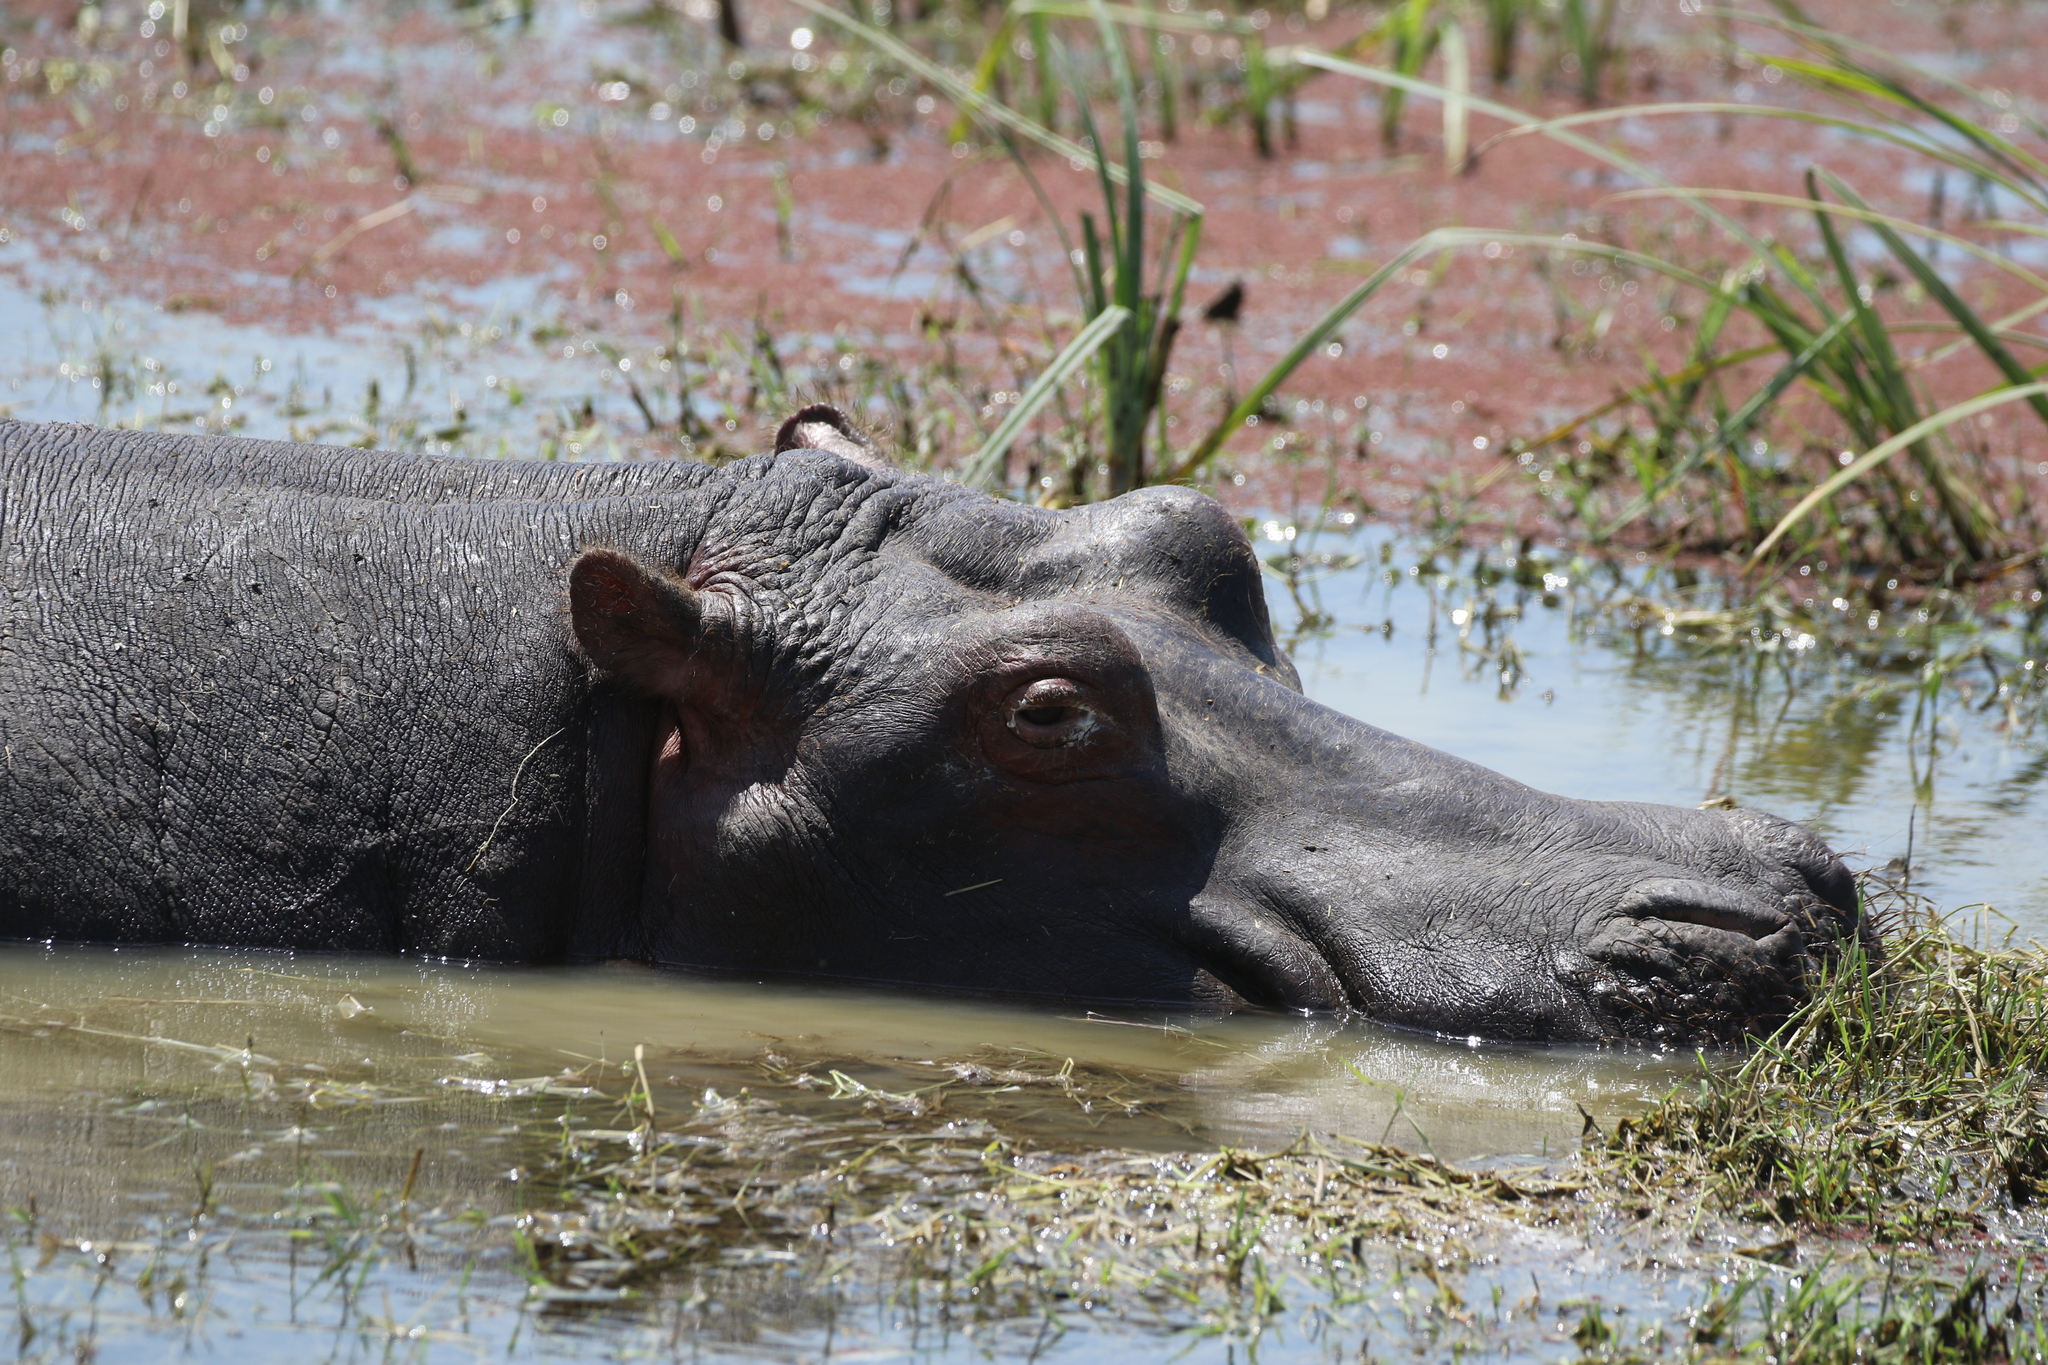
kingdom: Animalia
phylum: Chordata
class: Mammalia
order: Artiodactyla
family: Hippopotamidae
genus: Hippopotamus
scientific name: Hippopotamus amphibius
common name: Common hippopotamus
